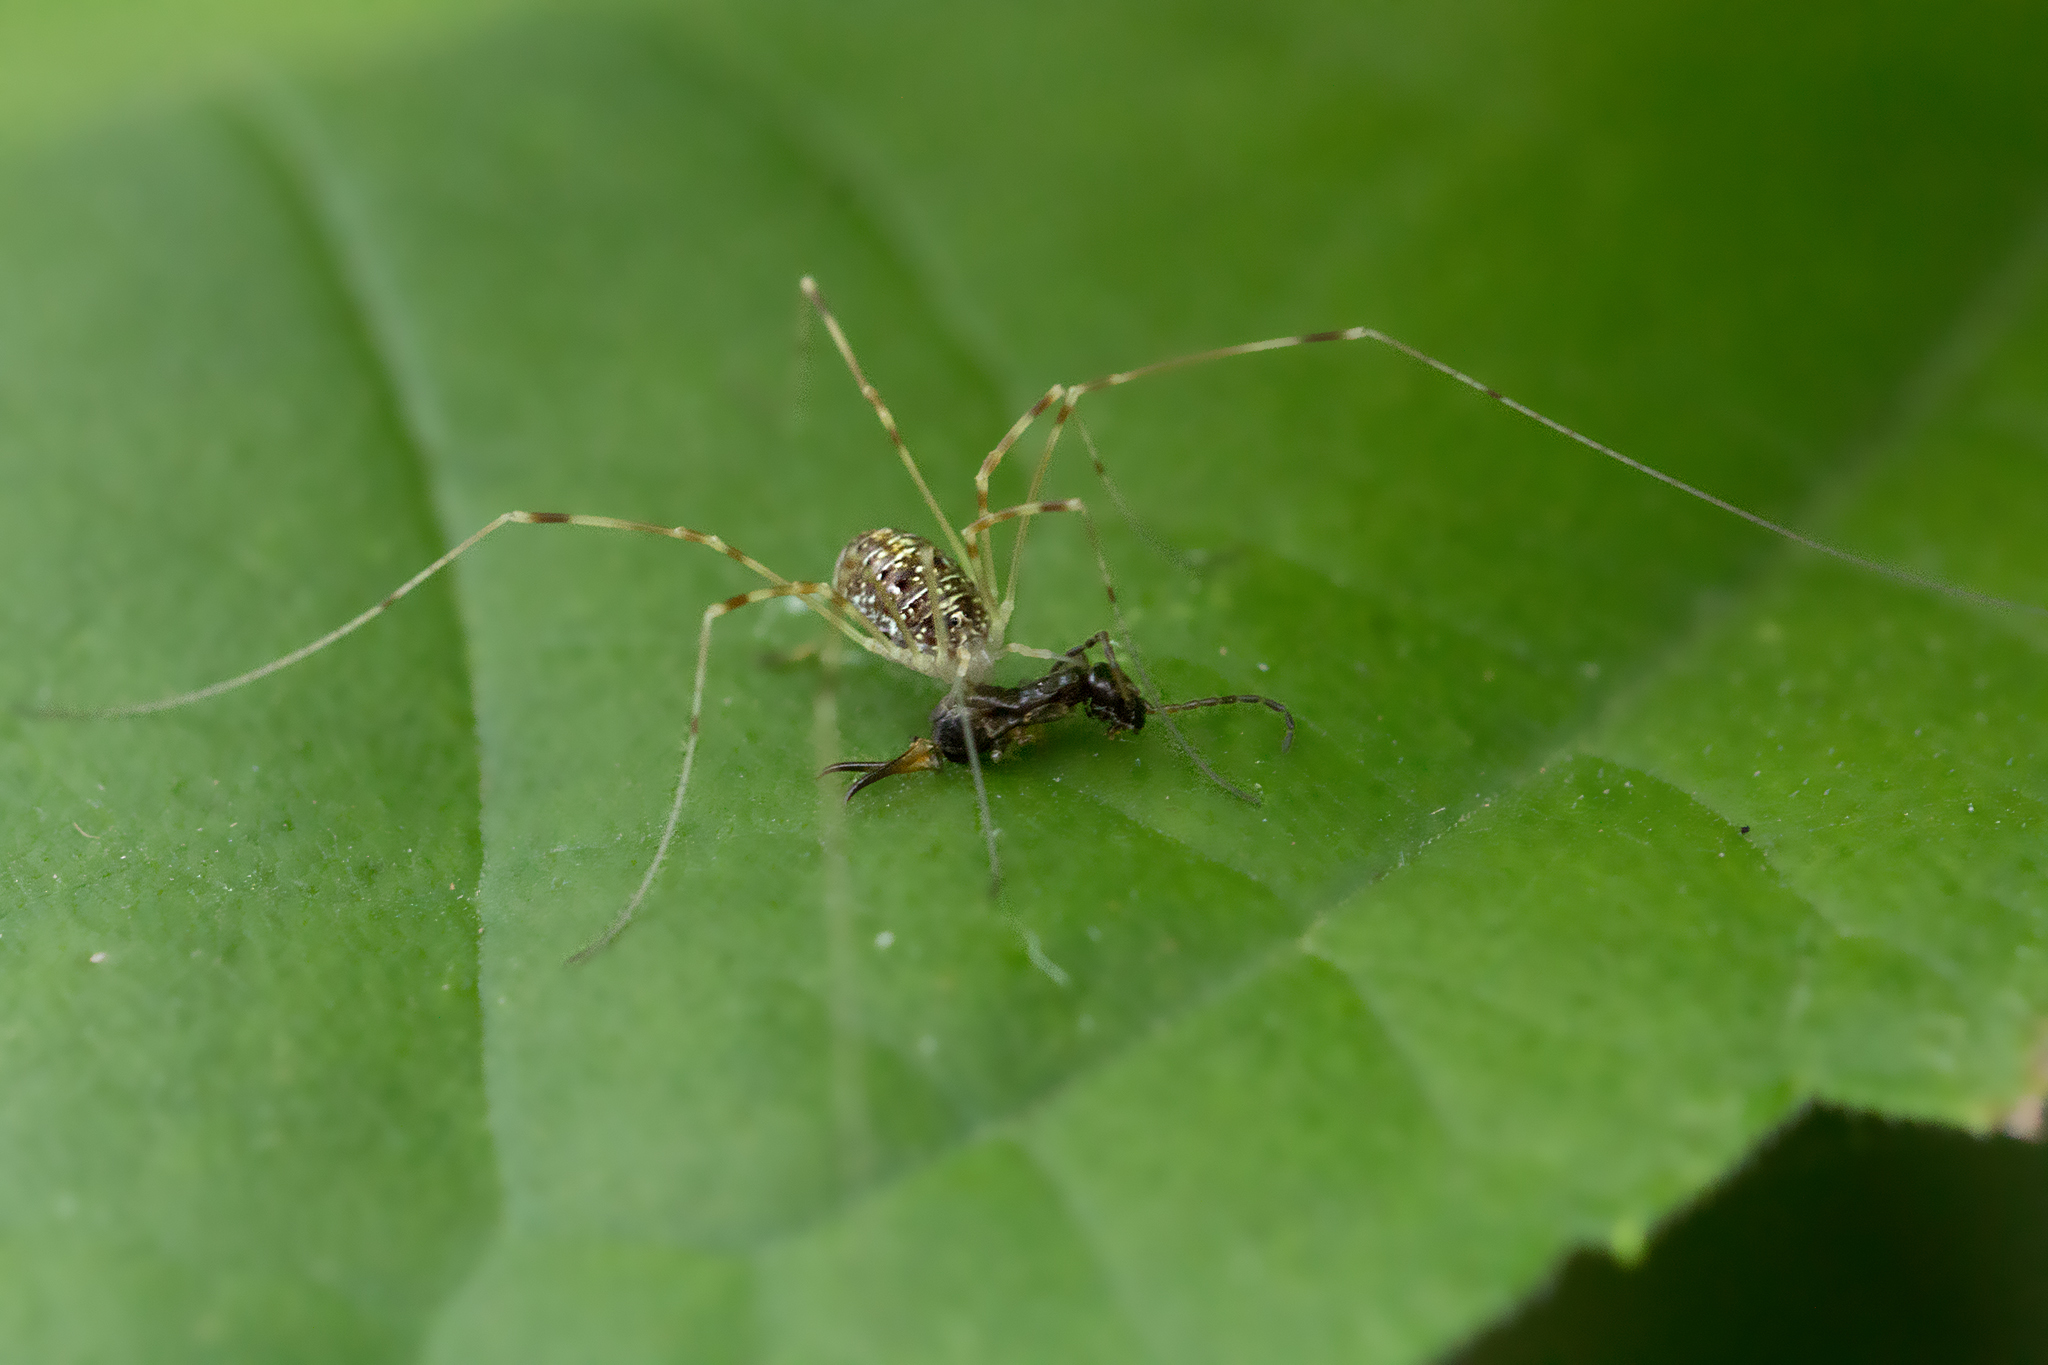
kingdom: Animalia
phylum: Arthropoda
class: Arachnida
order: Opiliones
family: Phalangiidae
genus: Opilio
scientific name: Opilio canestrinii
